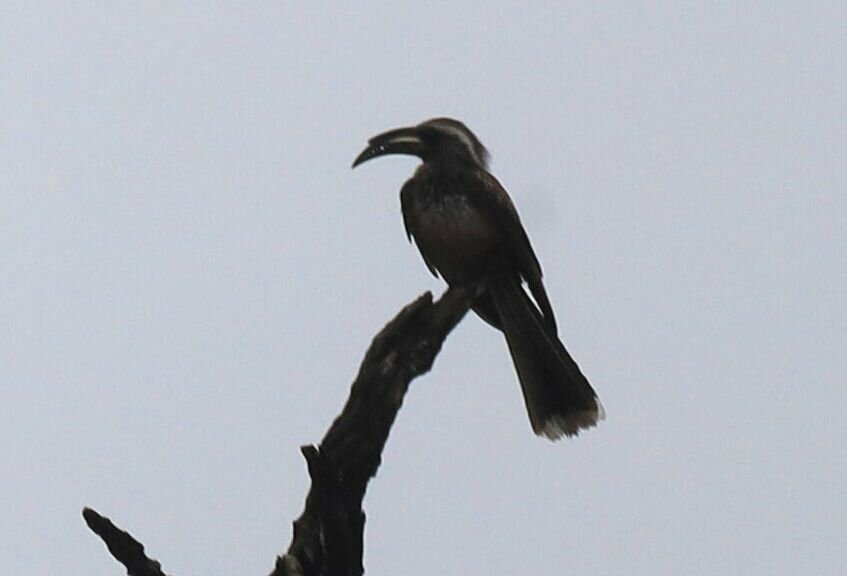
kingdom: Animalia
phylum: Chordata
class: Aves
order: Bucerotiformes
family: Bucerotidae
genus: Lophoceros
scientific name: Lophoceros nasutus
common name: African grey hornbill
